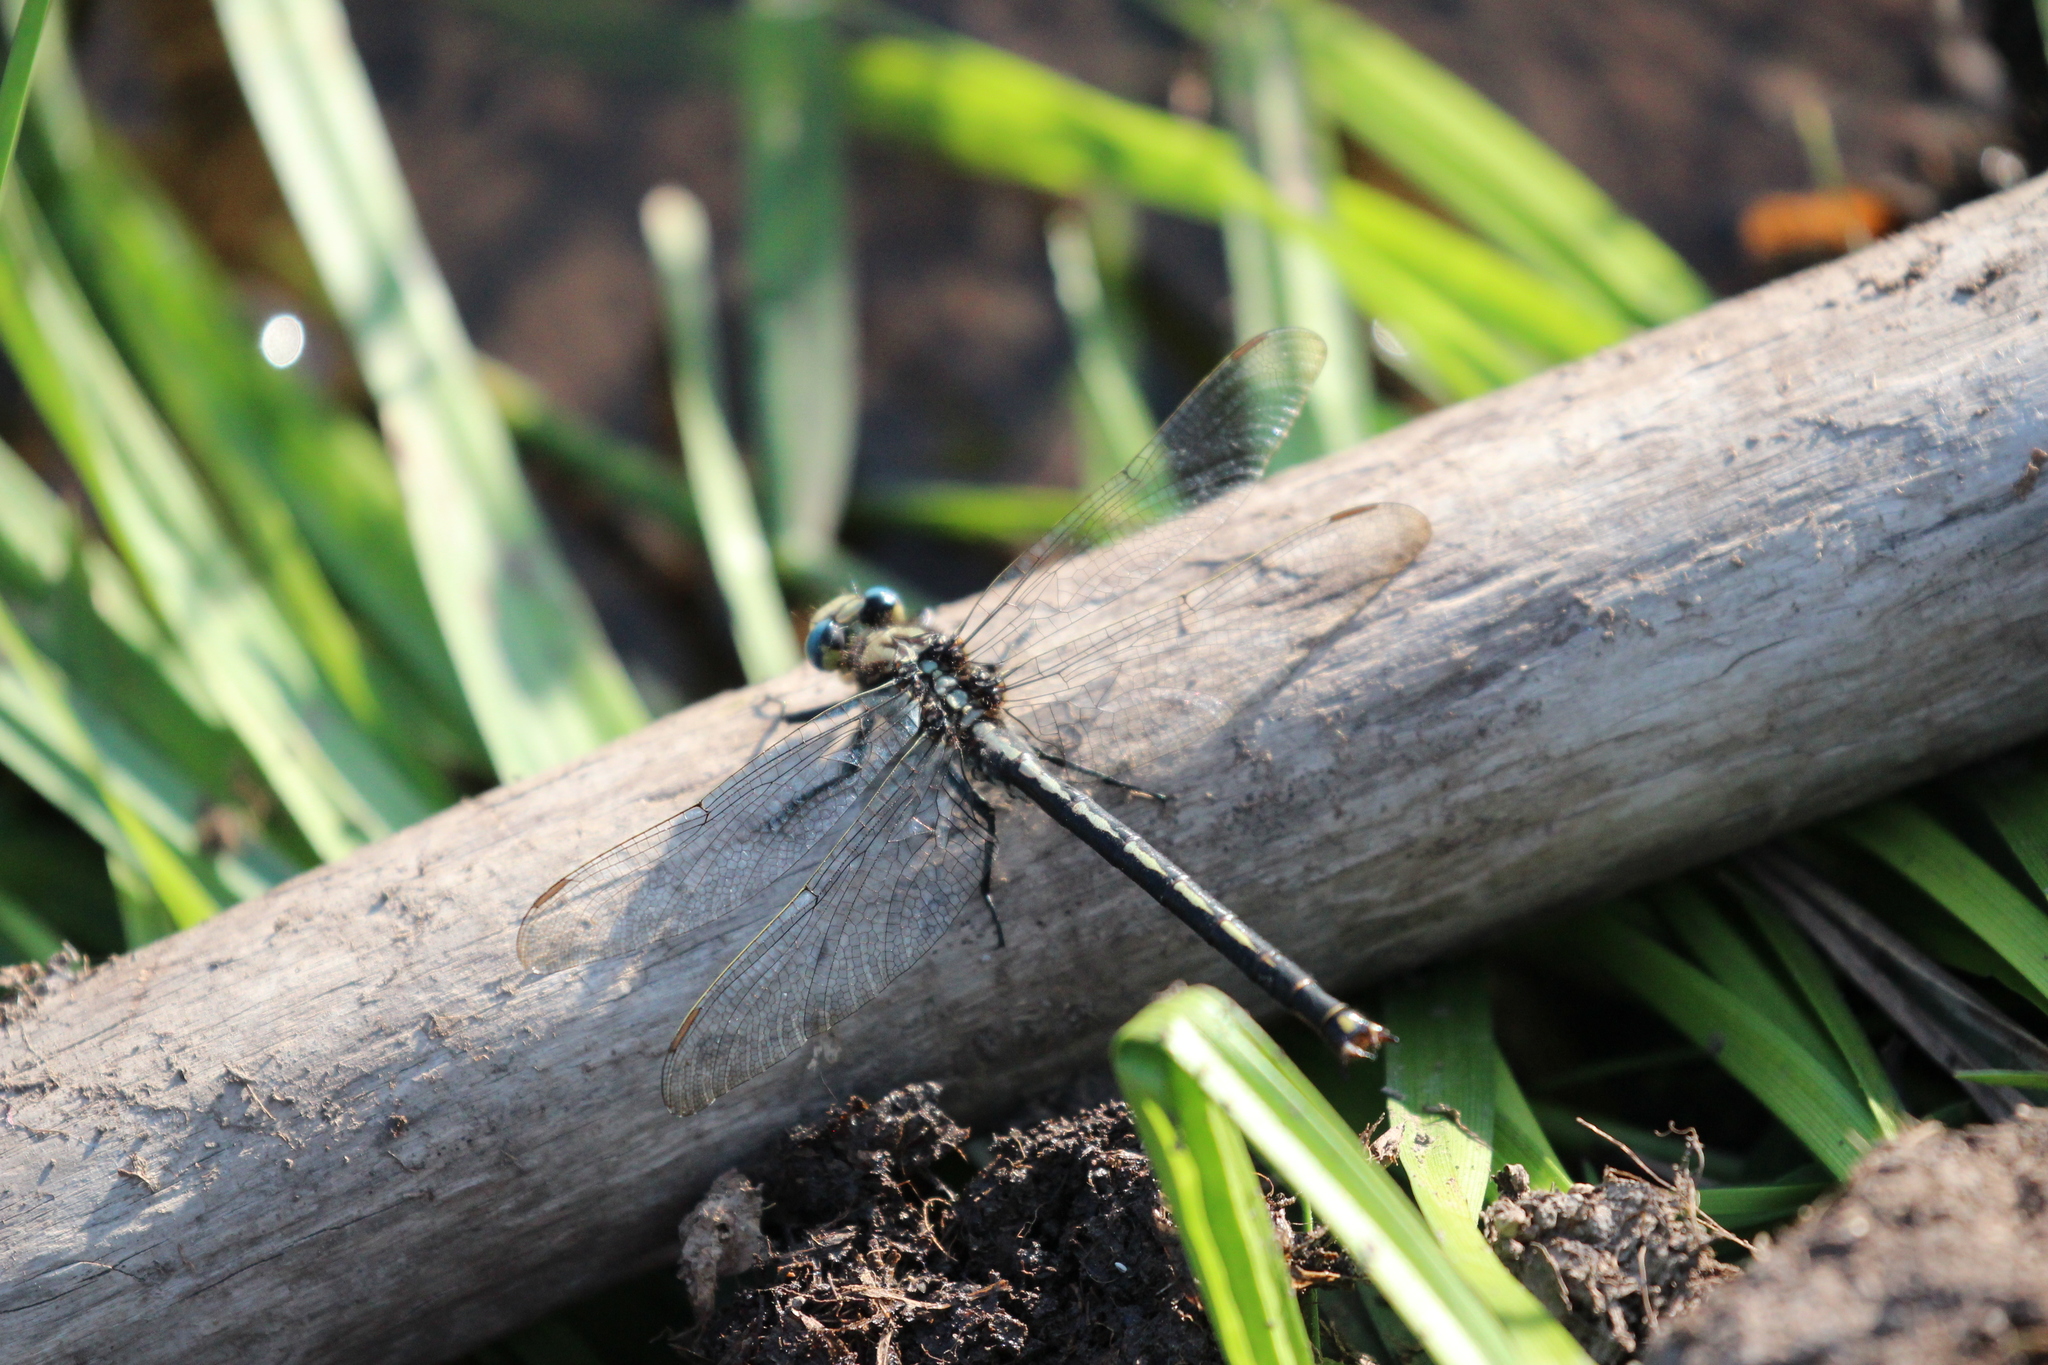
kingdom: Animalia
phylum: Arthropoda
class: Insecta
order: Odonata
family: Gomphidae
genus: Arigomphus
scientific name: Arigomphus cornutus
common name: Horned clubtail
